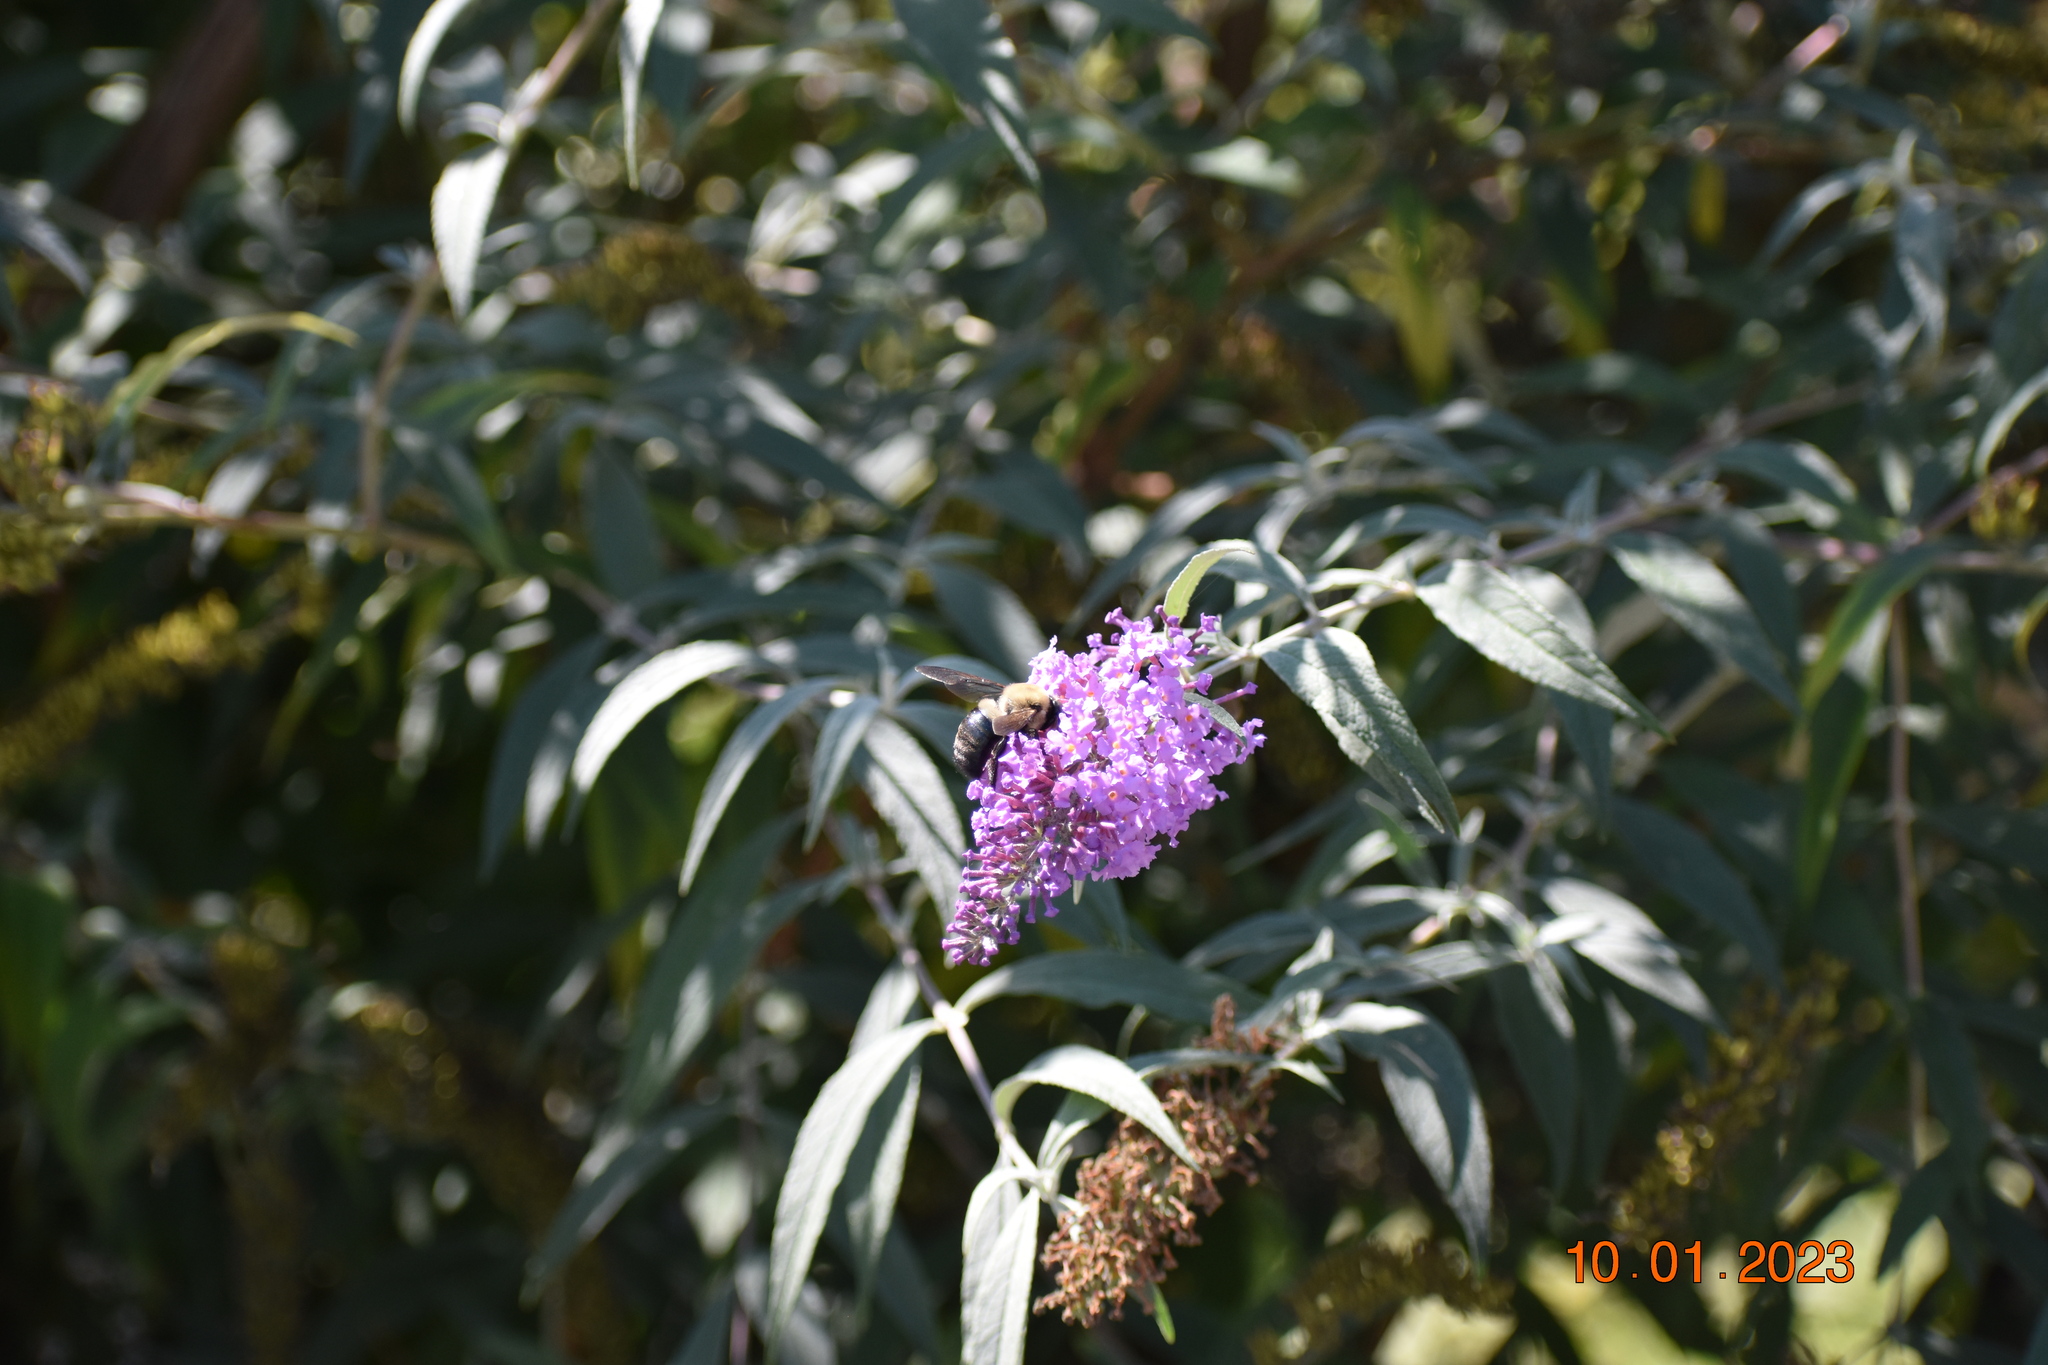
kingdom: Plantae
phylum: Tracheophyta
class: Magnoliopsida
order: Lamiales
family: Scrophulariaceae
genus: Buddleja
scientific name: Buddleja davidii
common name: Butterfly-bush
